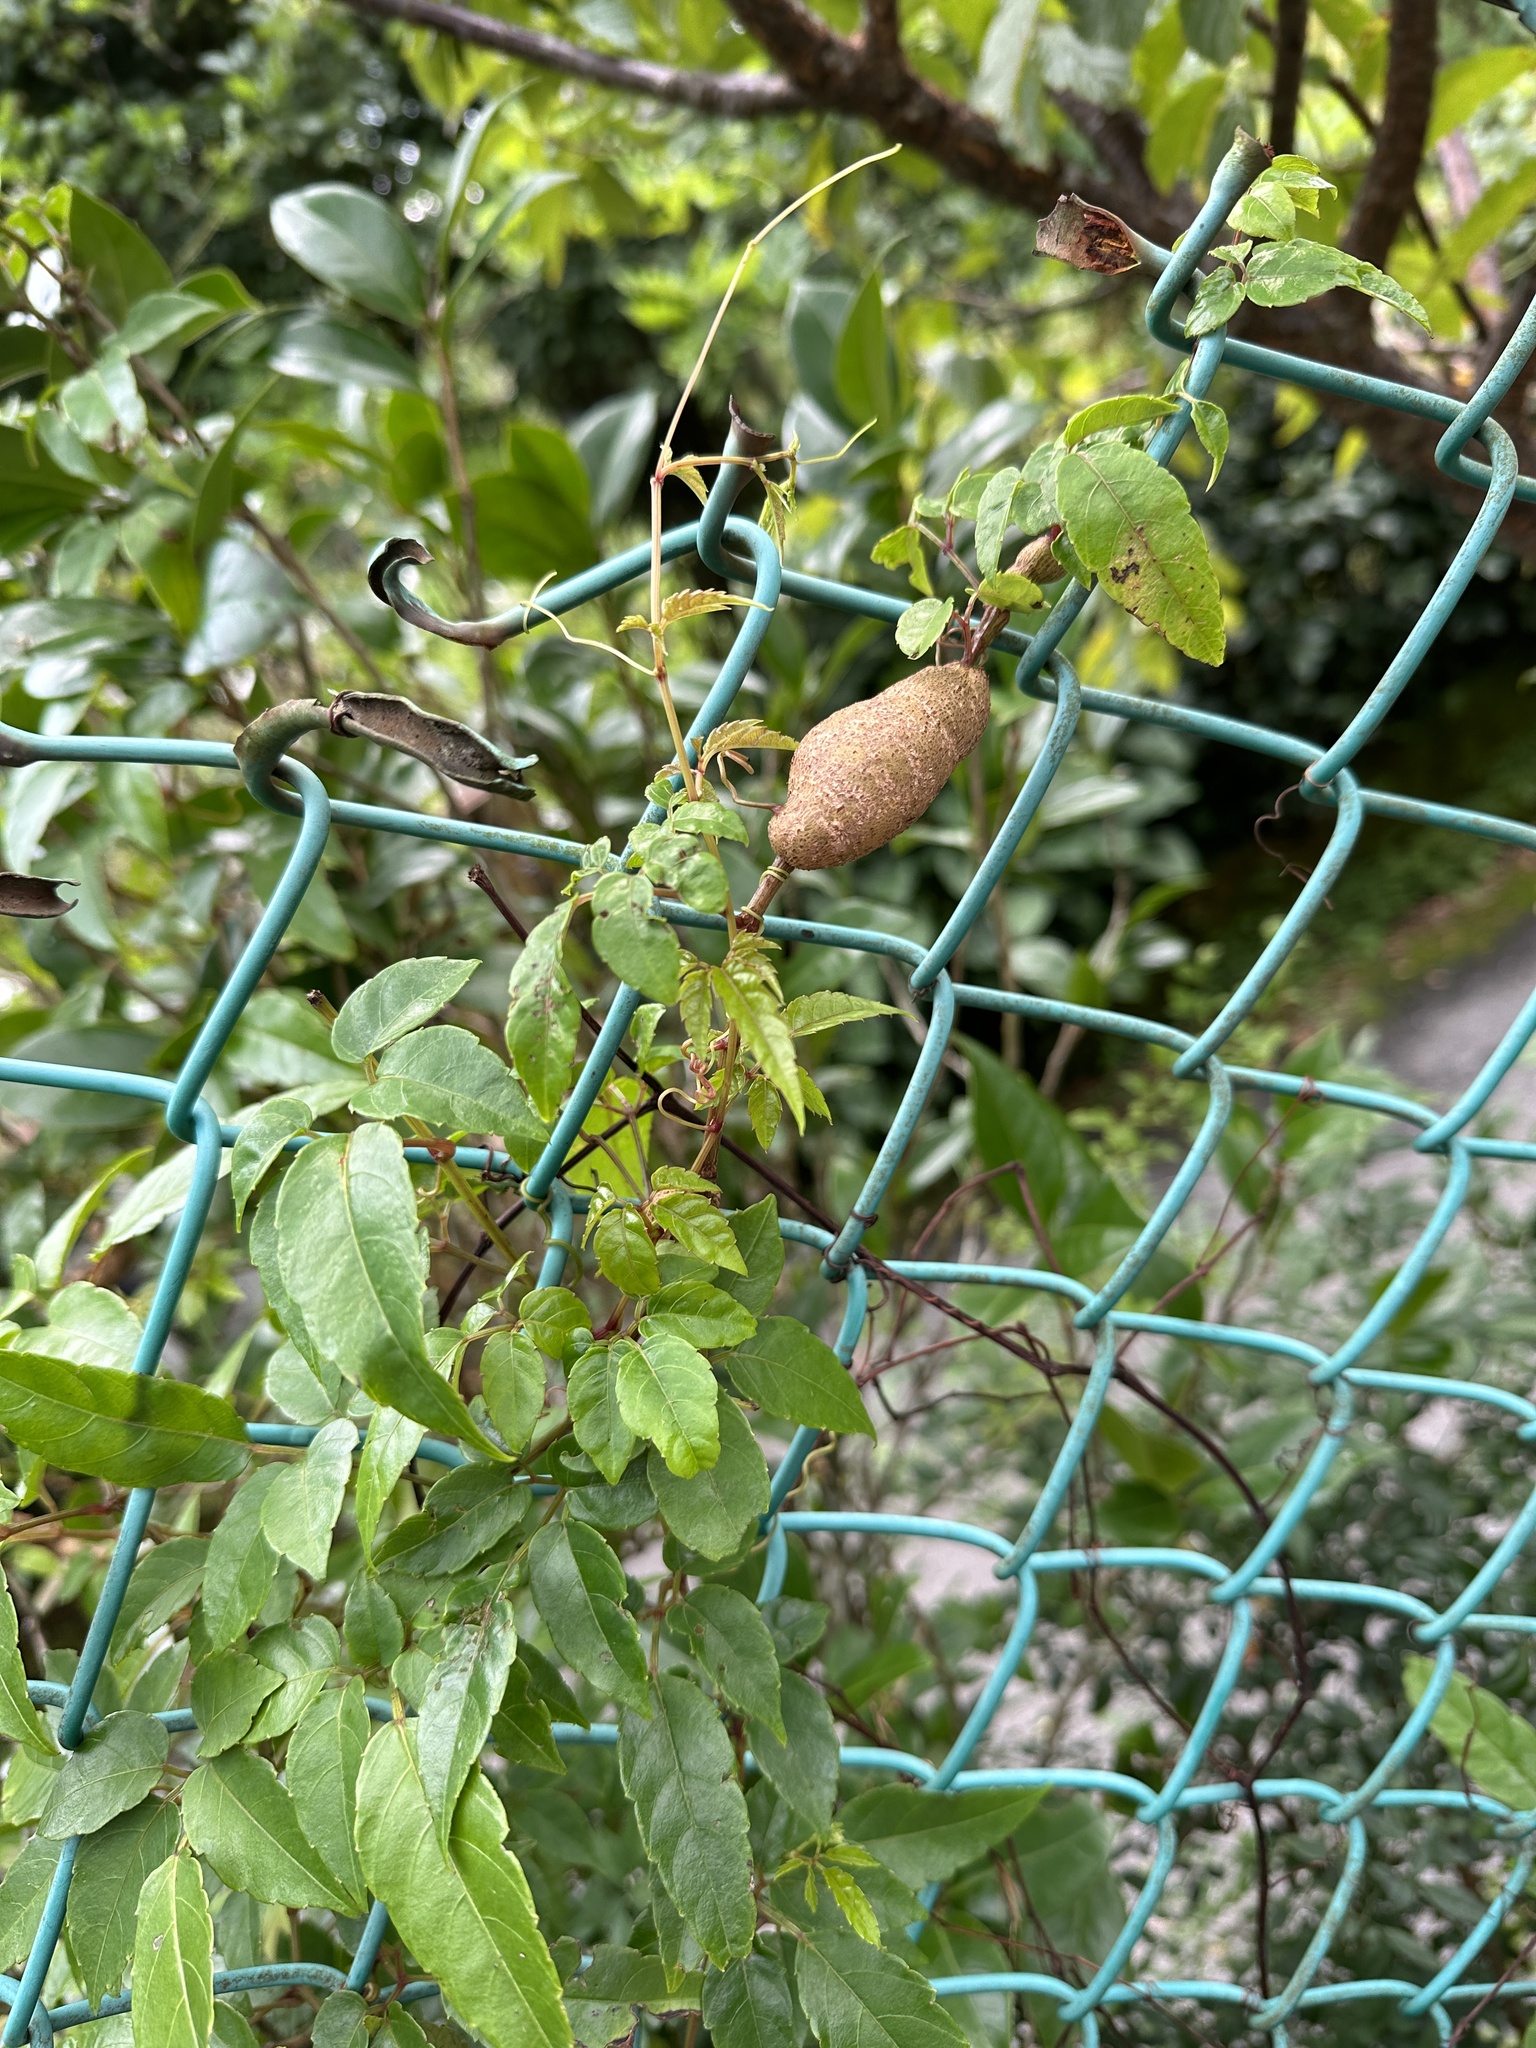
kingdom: Plantae
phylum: Tracheophyta
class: Magnoliopsida
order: Vitales
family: Vitaceae
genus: Causonis
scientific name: Causonis corniculata
